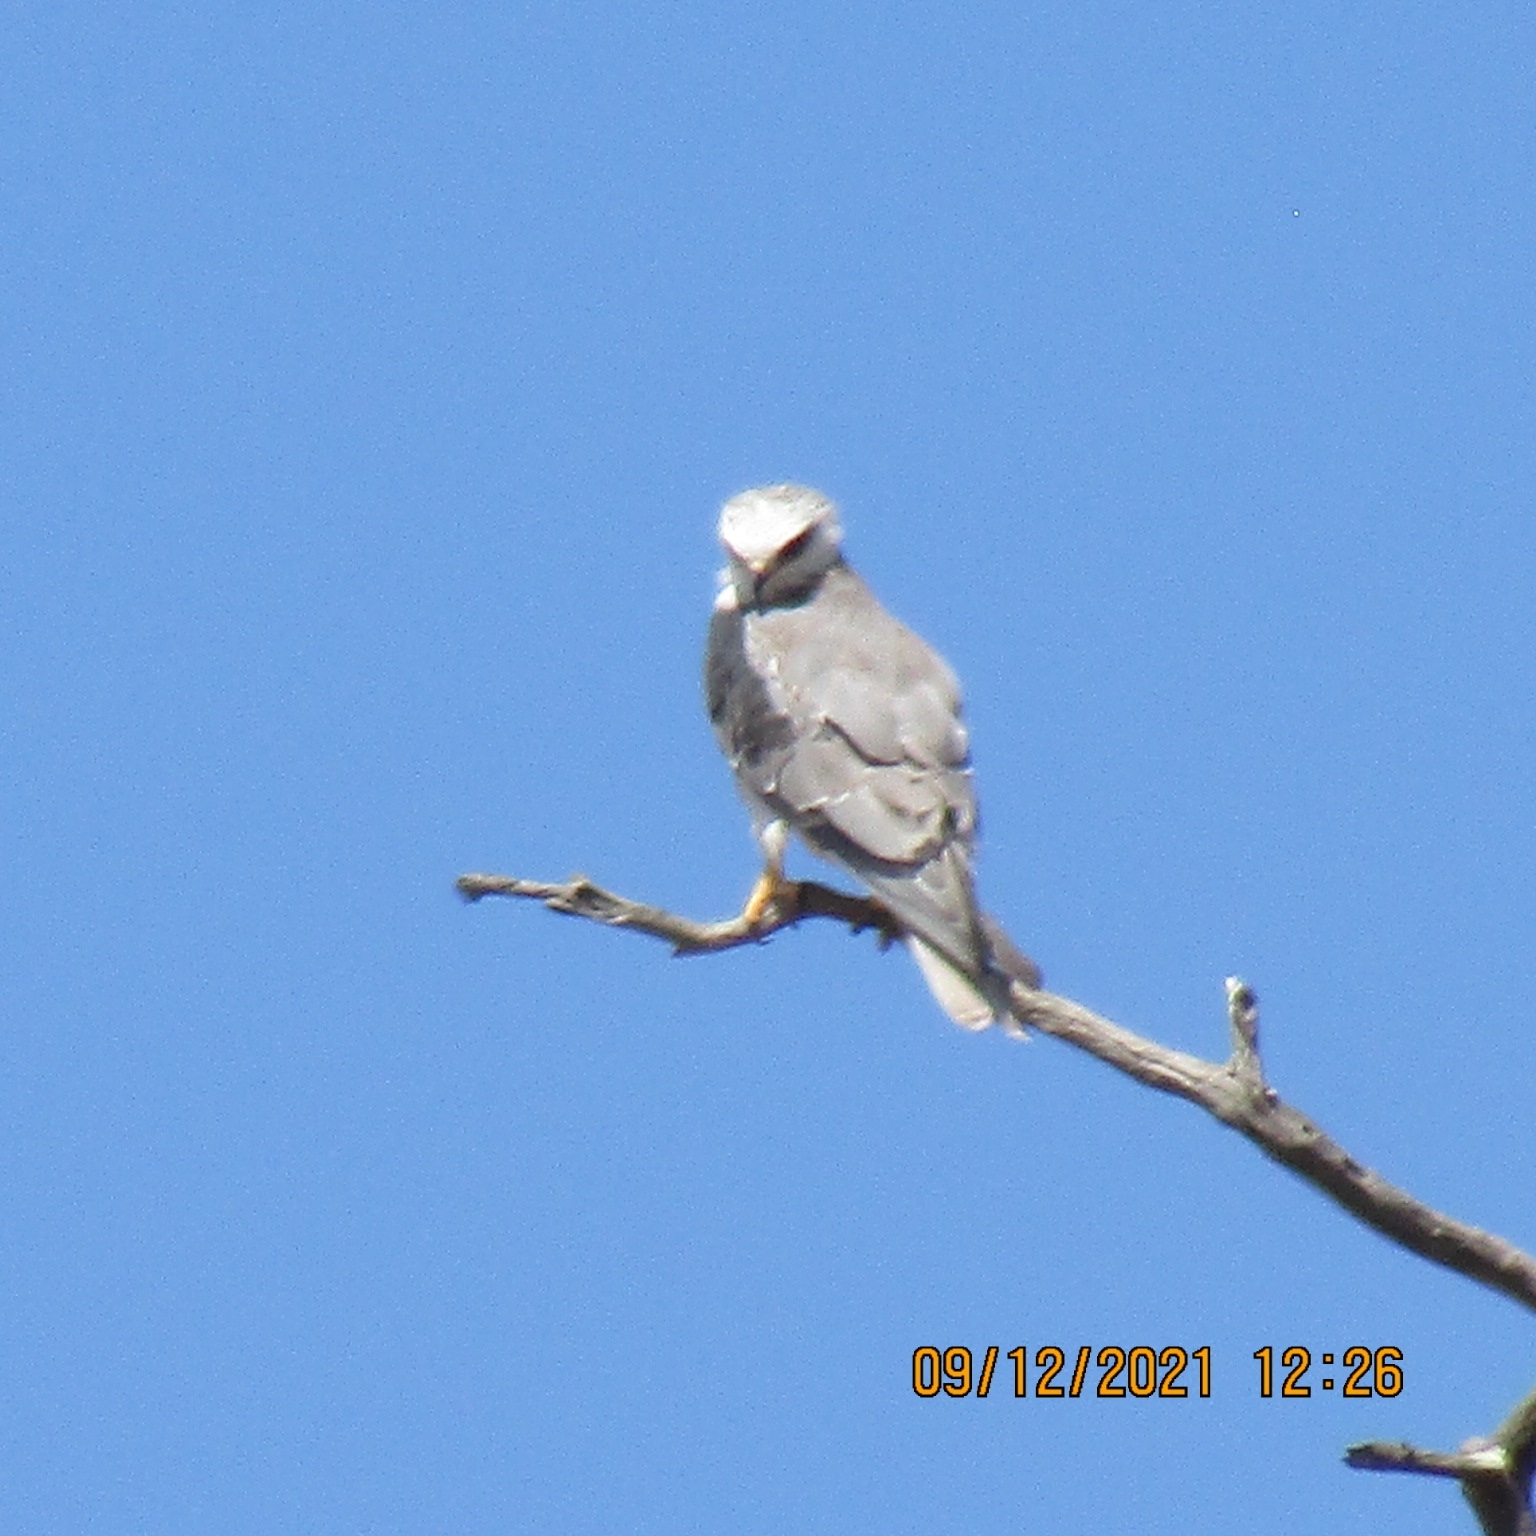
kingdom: Animalia
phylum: Chordata
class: Aves
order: Accipitriformes
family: Accipitridae
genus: Elanus
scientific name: Elanus leucurus
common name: White-tailed kite
